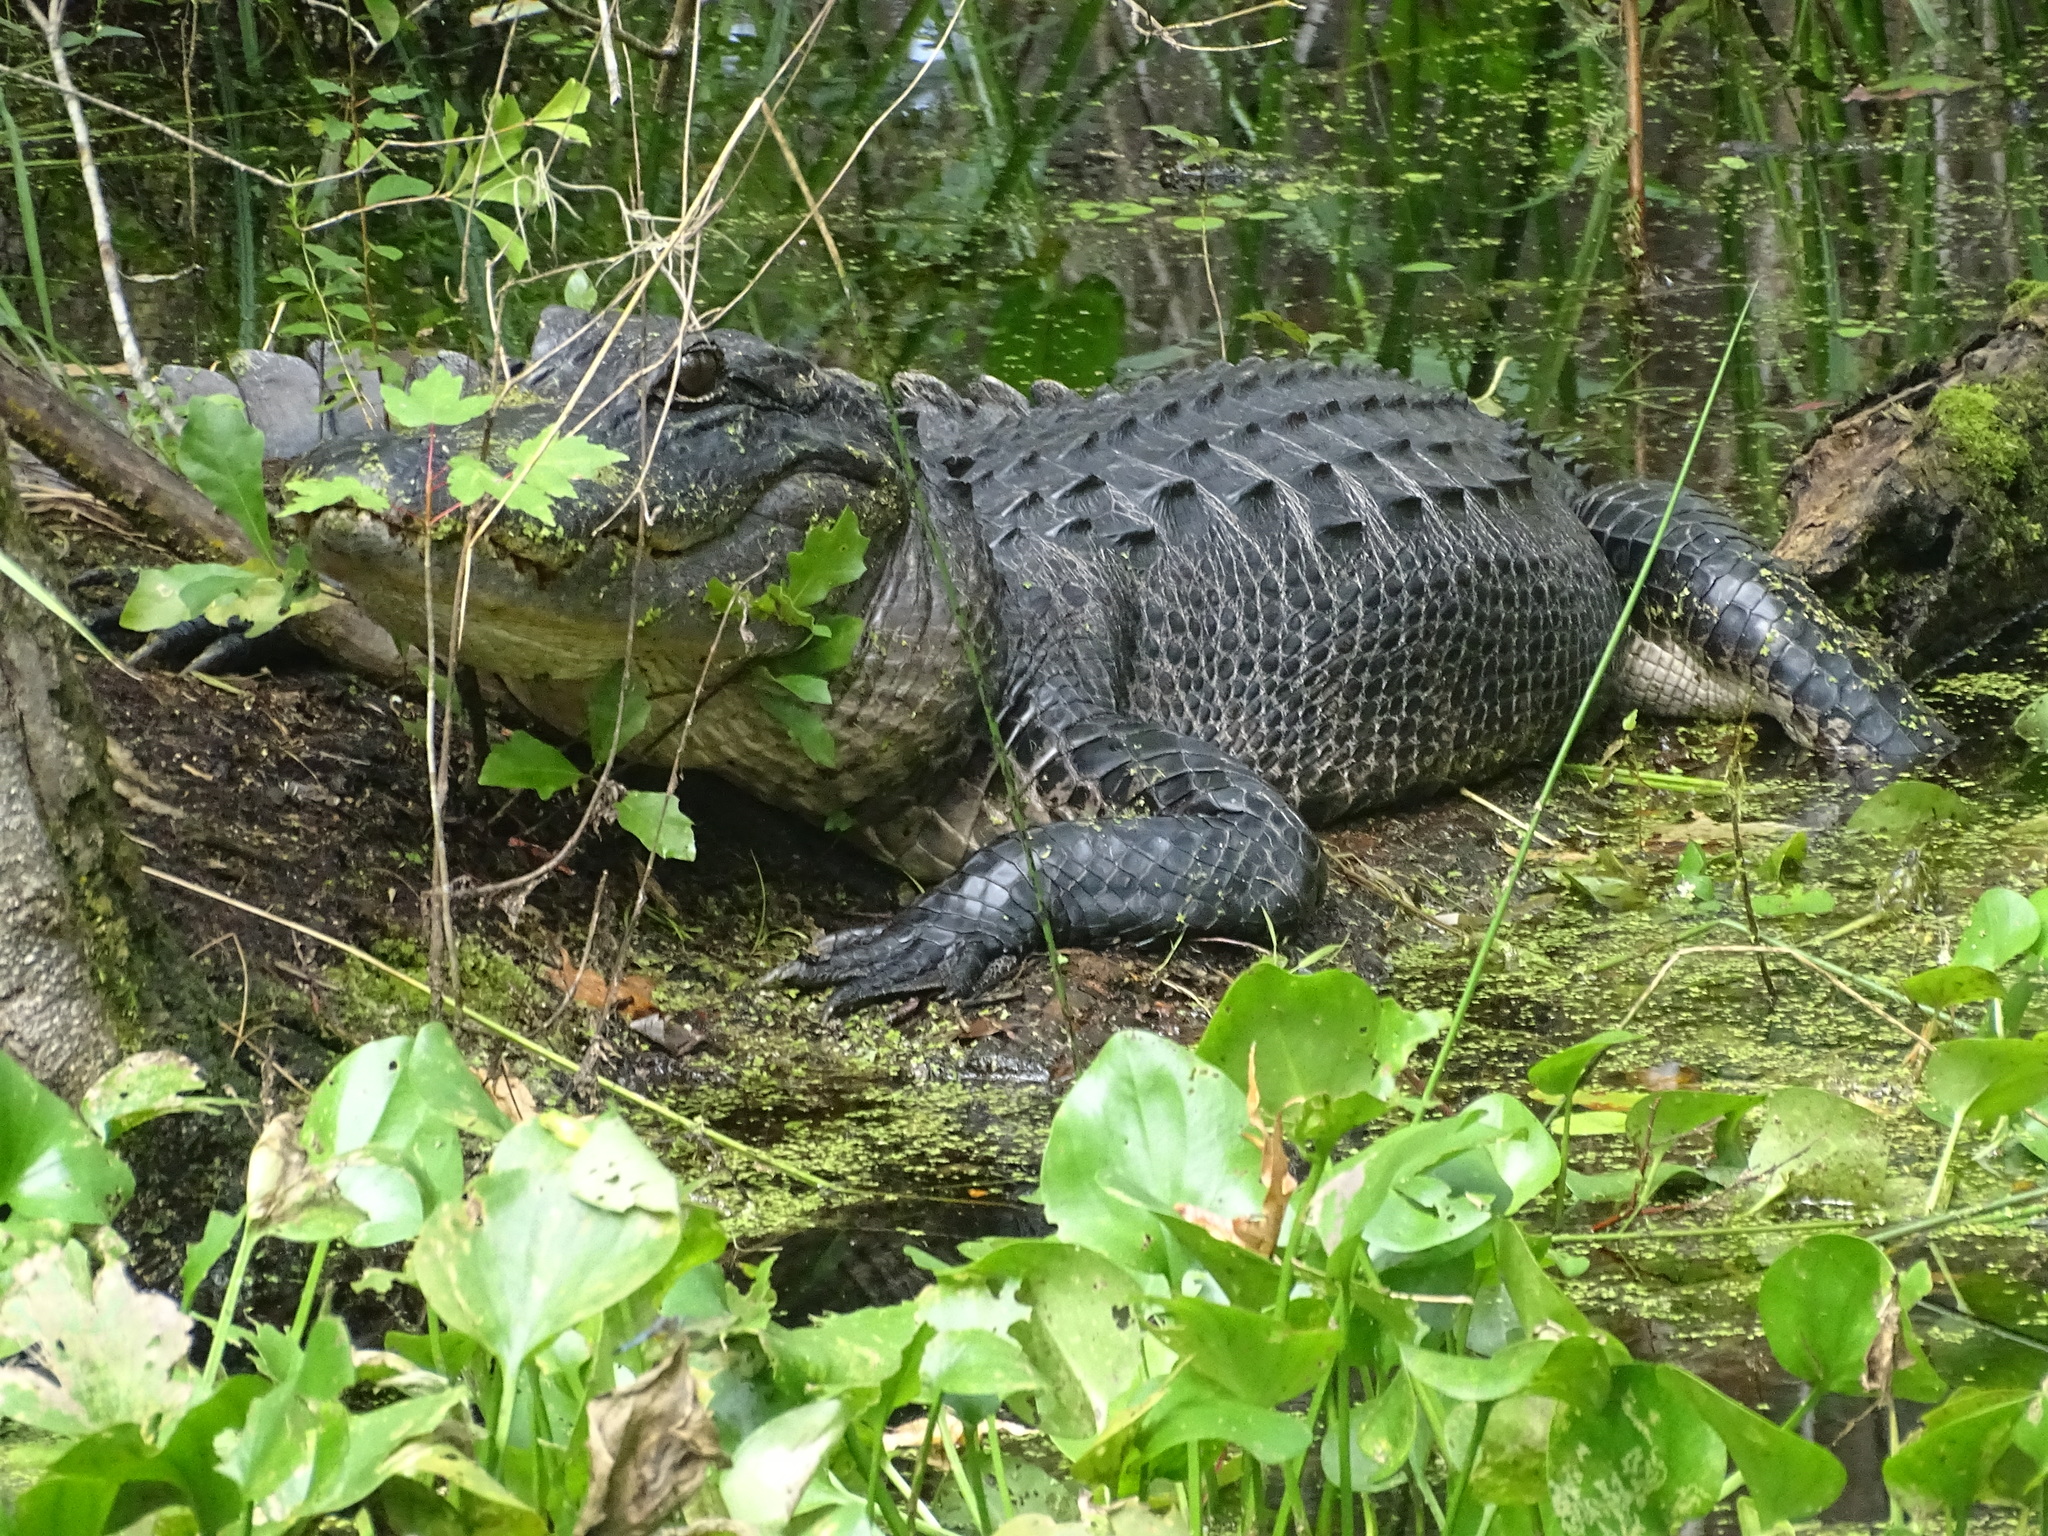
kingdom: Animalia
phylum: Chordata
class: Crocodylia
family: Alligatoridae
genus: Alligator
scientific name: Alligator mississippiensis
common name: American alligator
